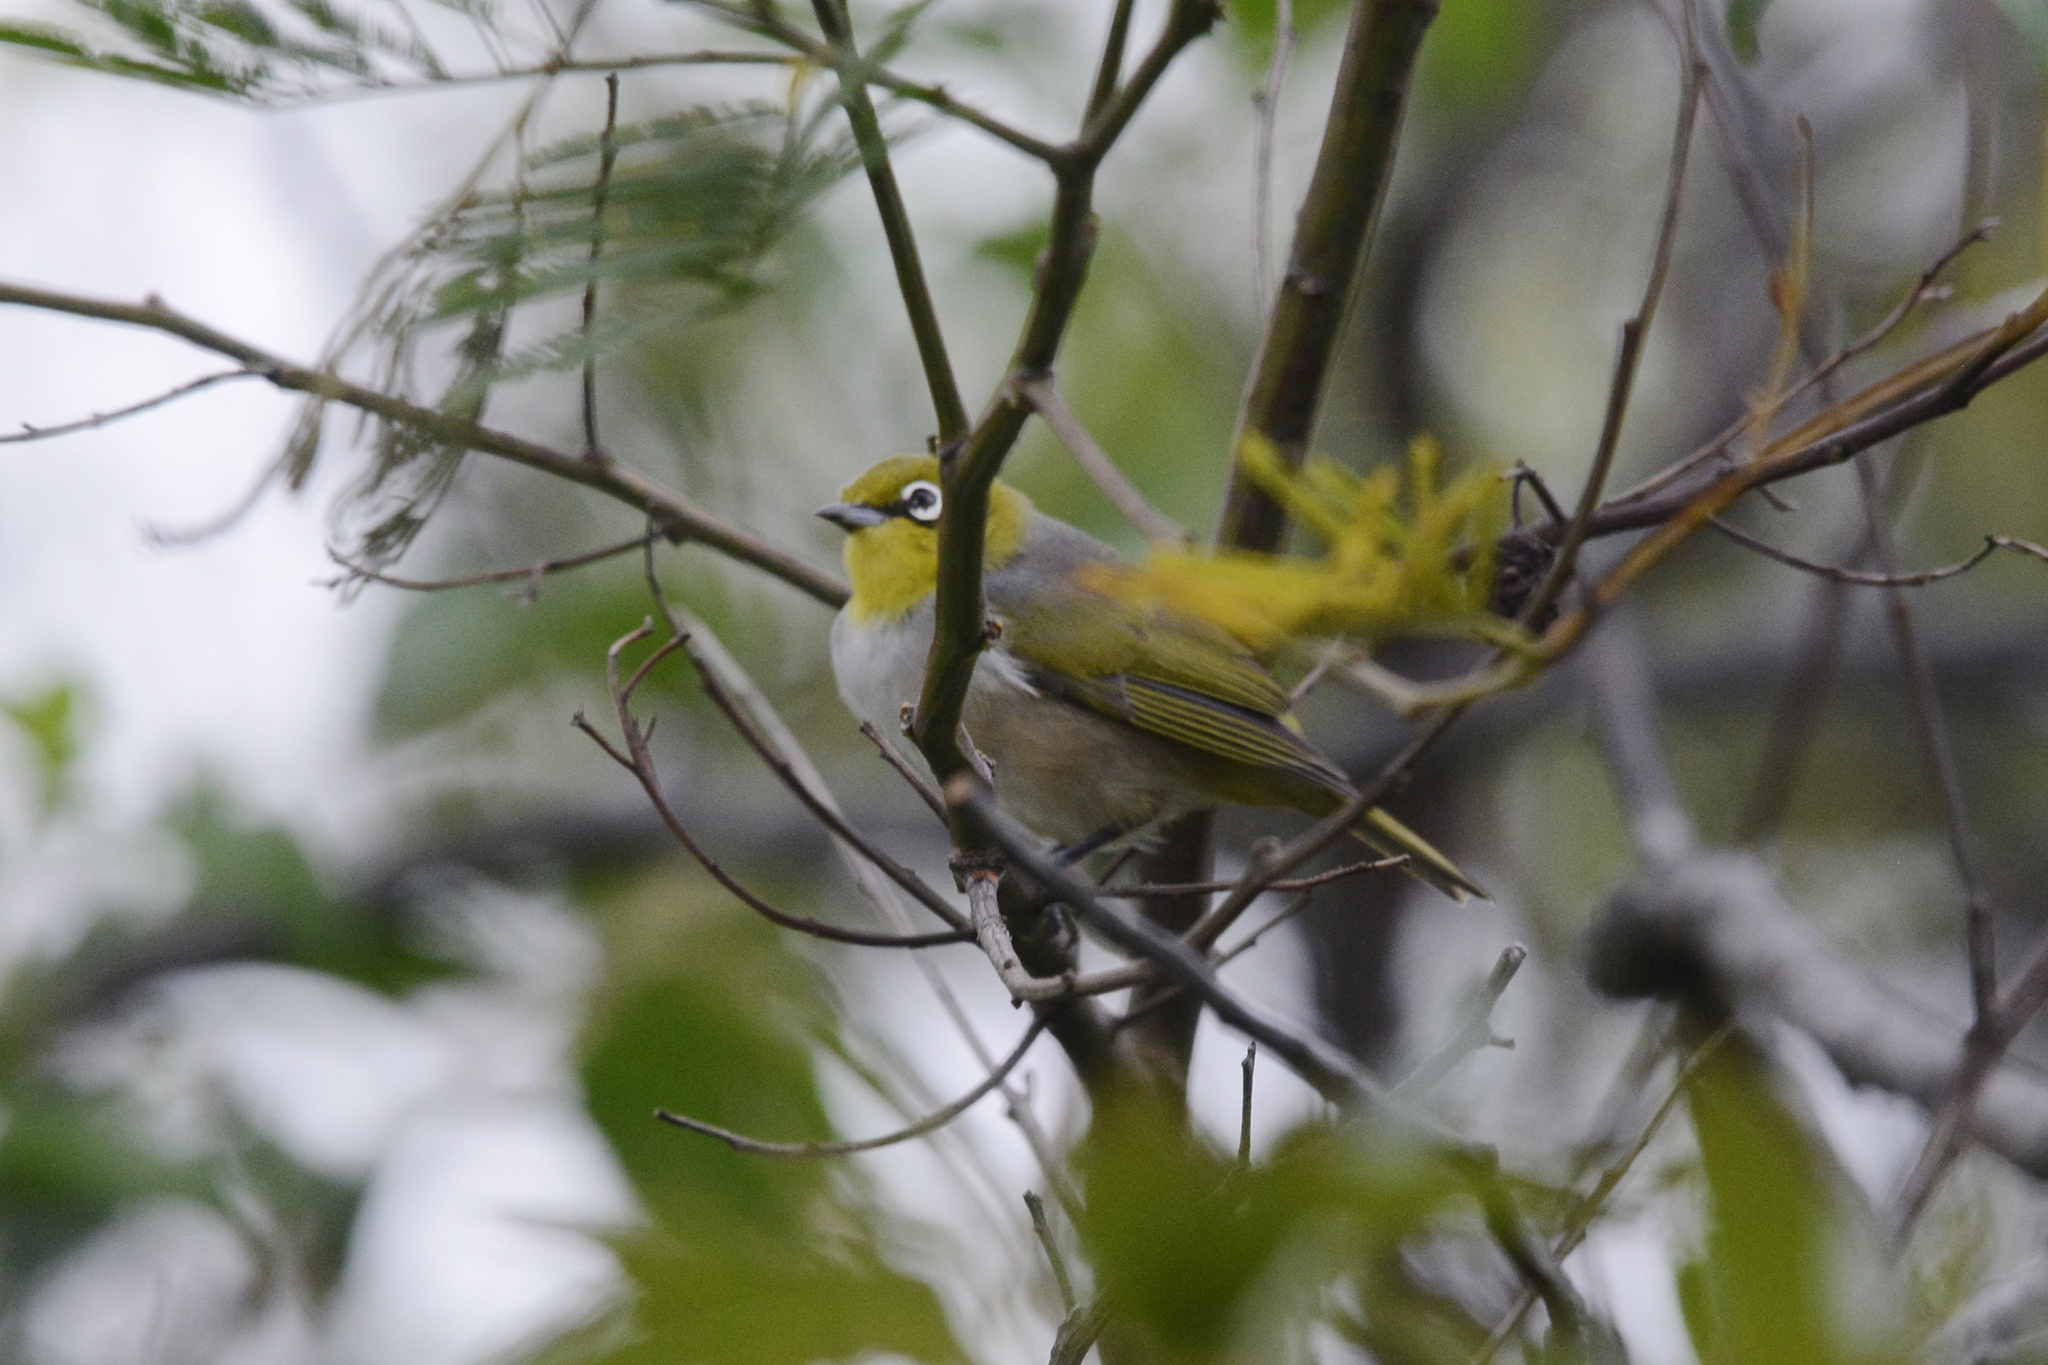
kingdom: Animalia
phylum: Chordata
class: Aves
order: Passeriformes
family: Zosteropidae
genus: Zosterops
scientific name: Zosterops lateralis
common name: Silvereye
